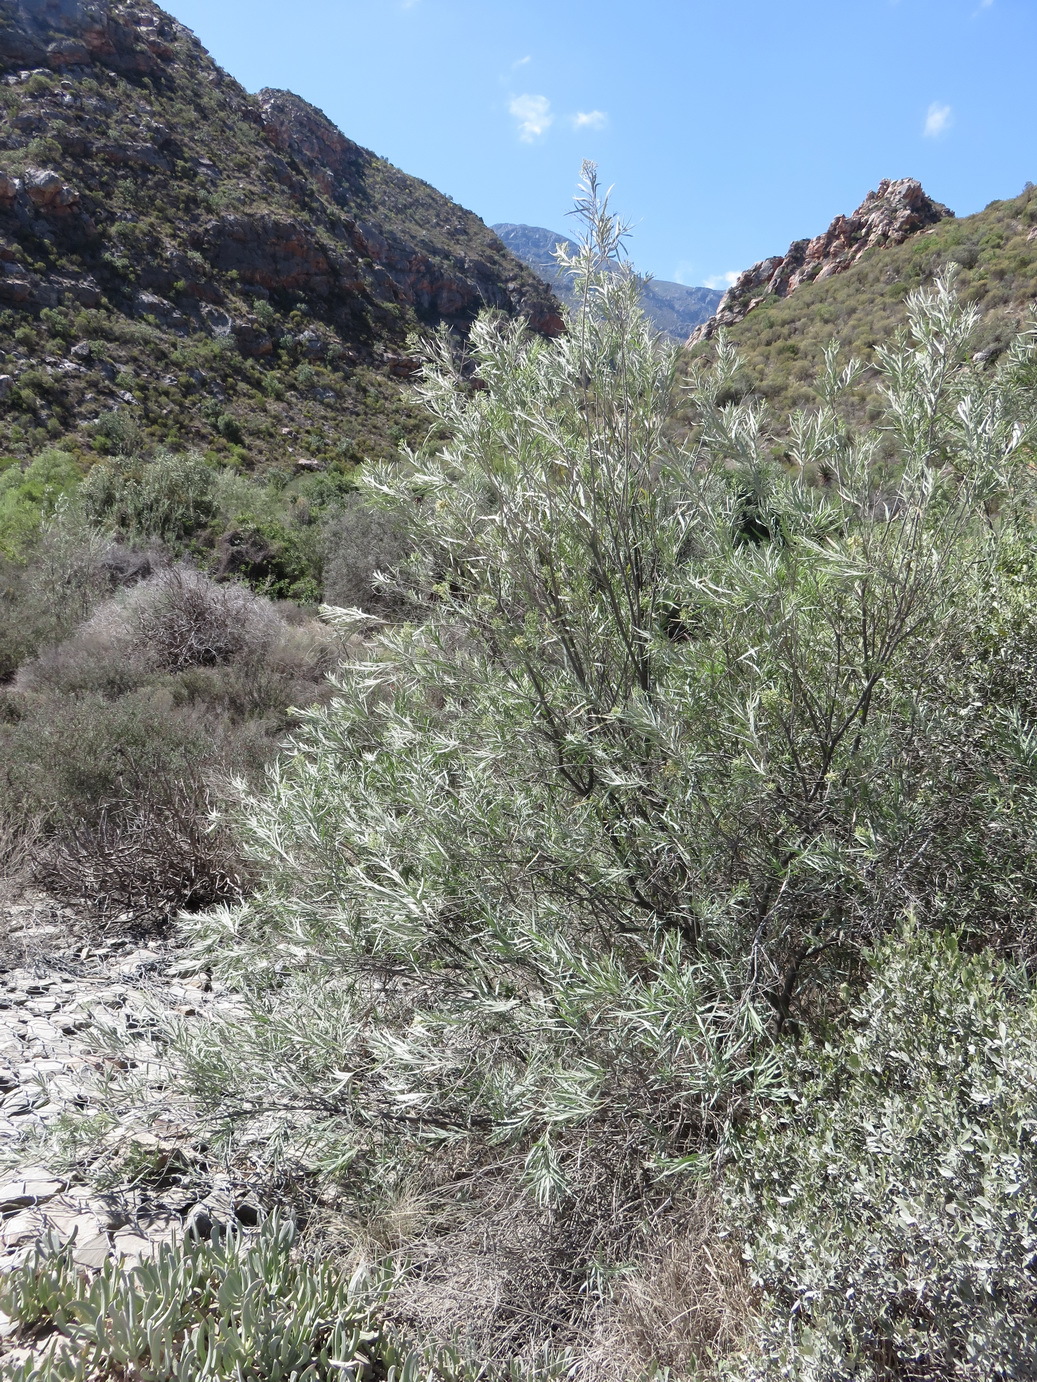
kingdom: Plantae
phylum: Tracheophyta
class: Magnoliopsida
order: Lamiales
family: Scrophulariaceae
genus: Freylinia
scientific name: Freylinia lanceolata
